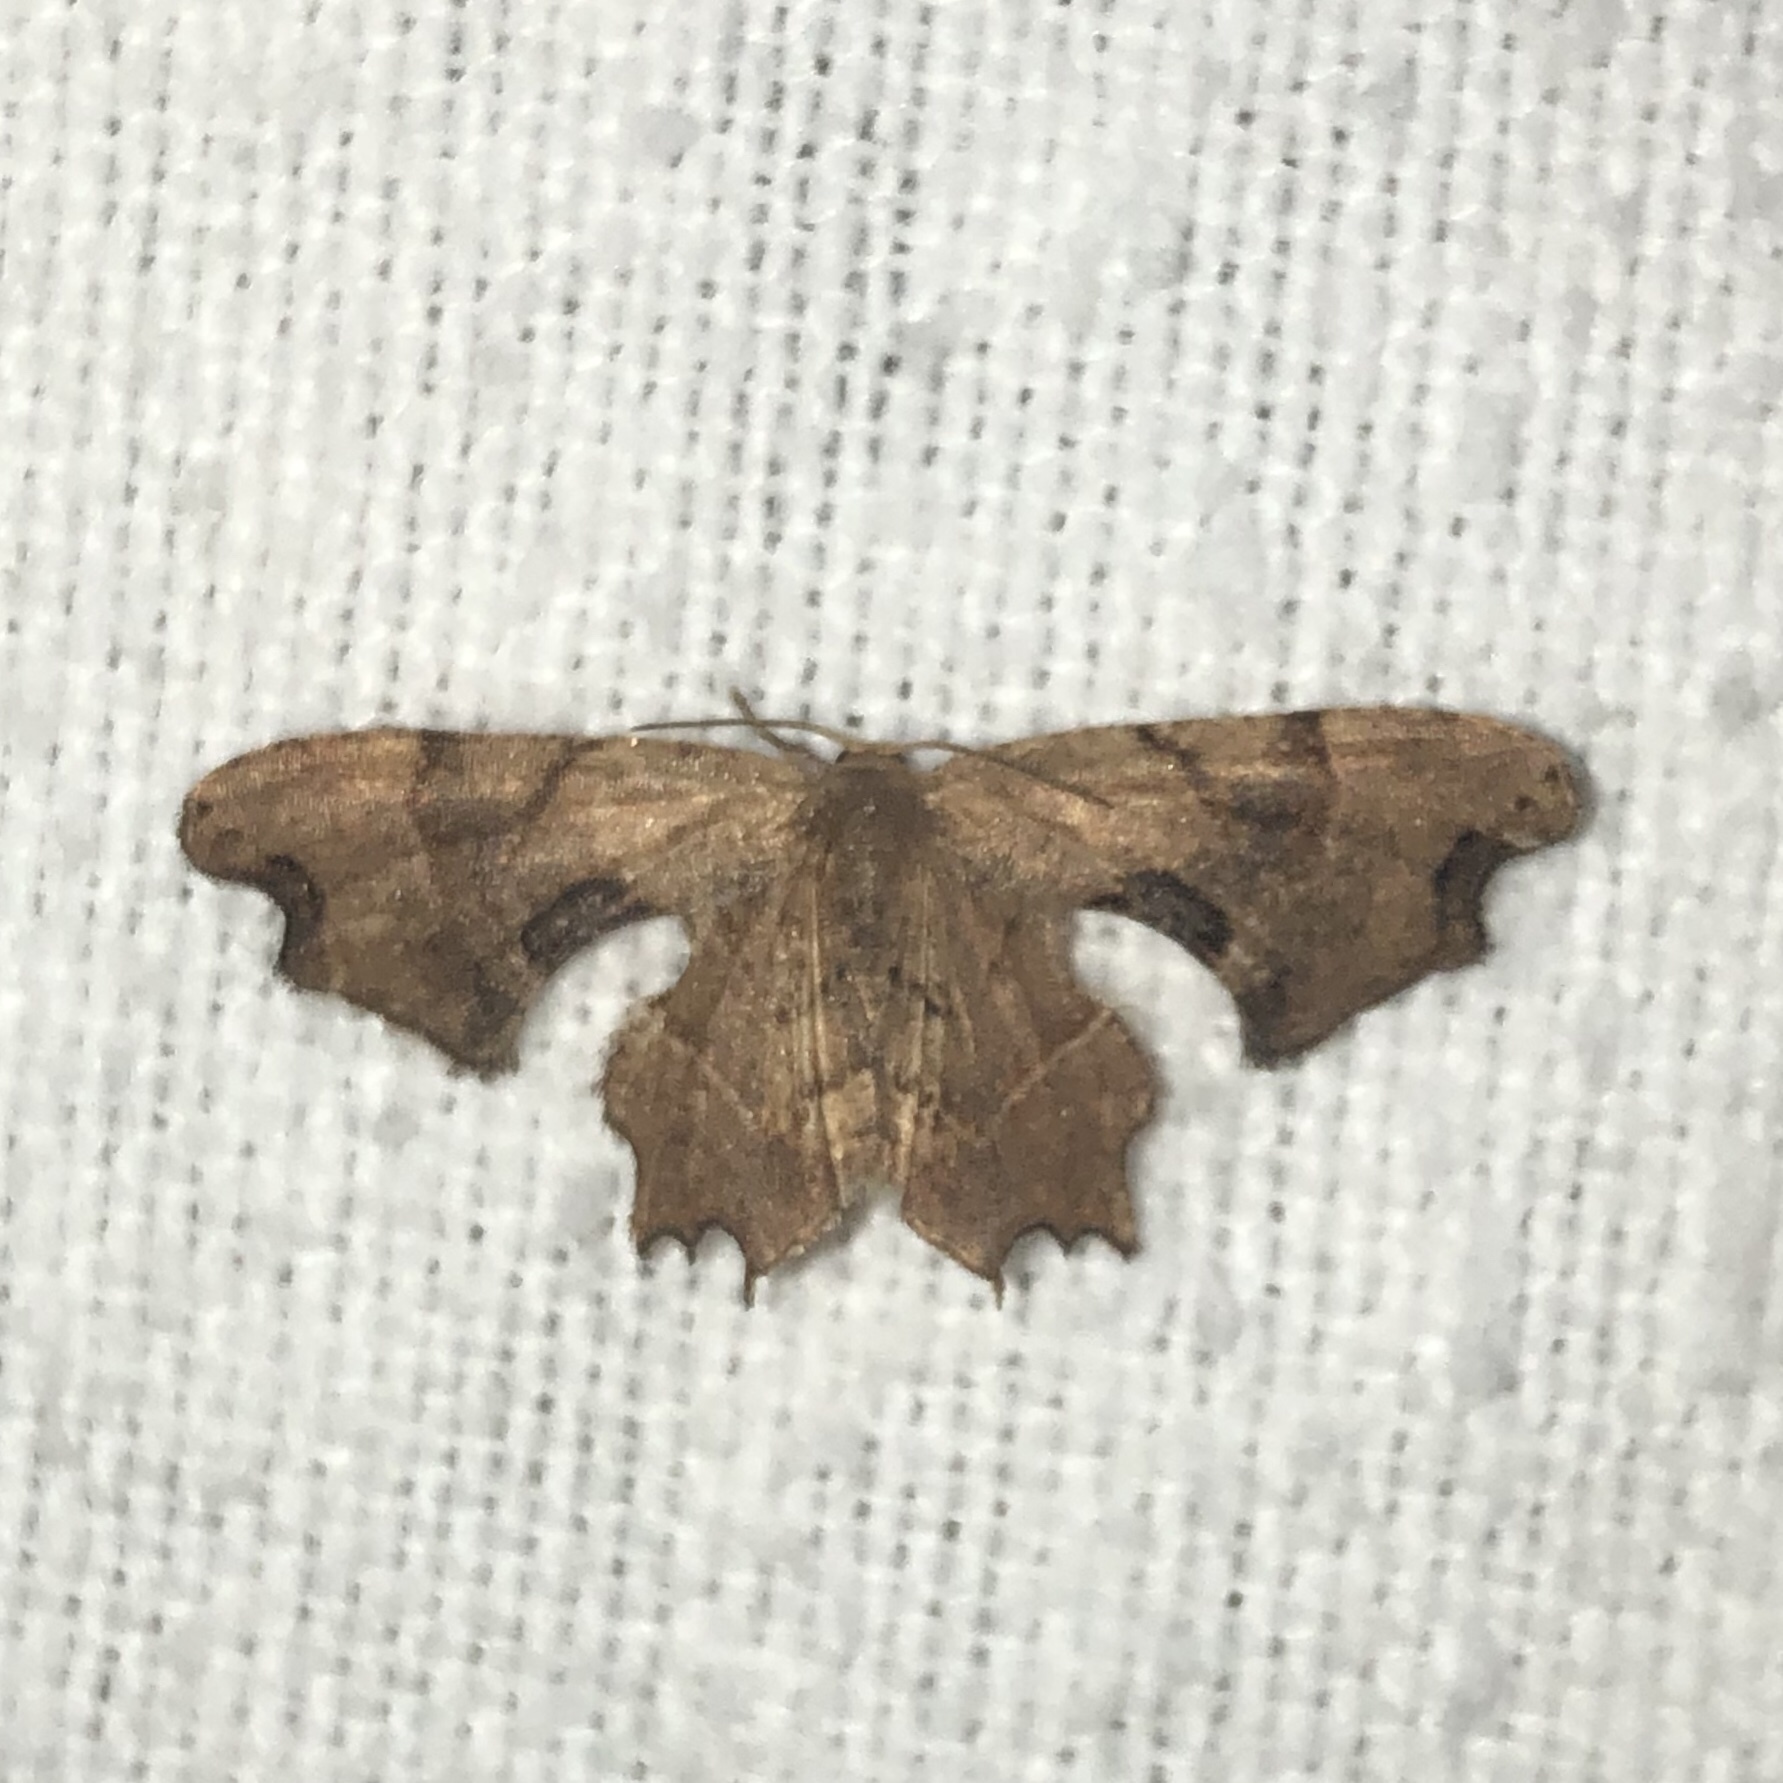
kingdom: Animalia
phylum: Arthropoda
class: Insecta
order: Lepidoptera
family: Uraniidae
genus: Epiplema
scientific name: Epiplema Calledapteryx dryopterata
